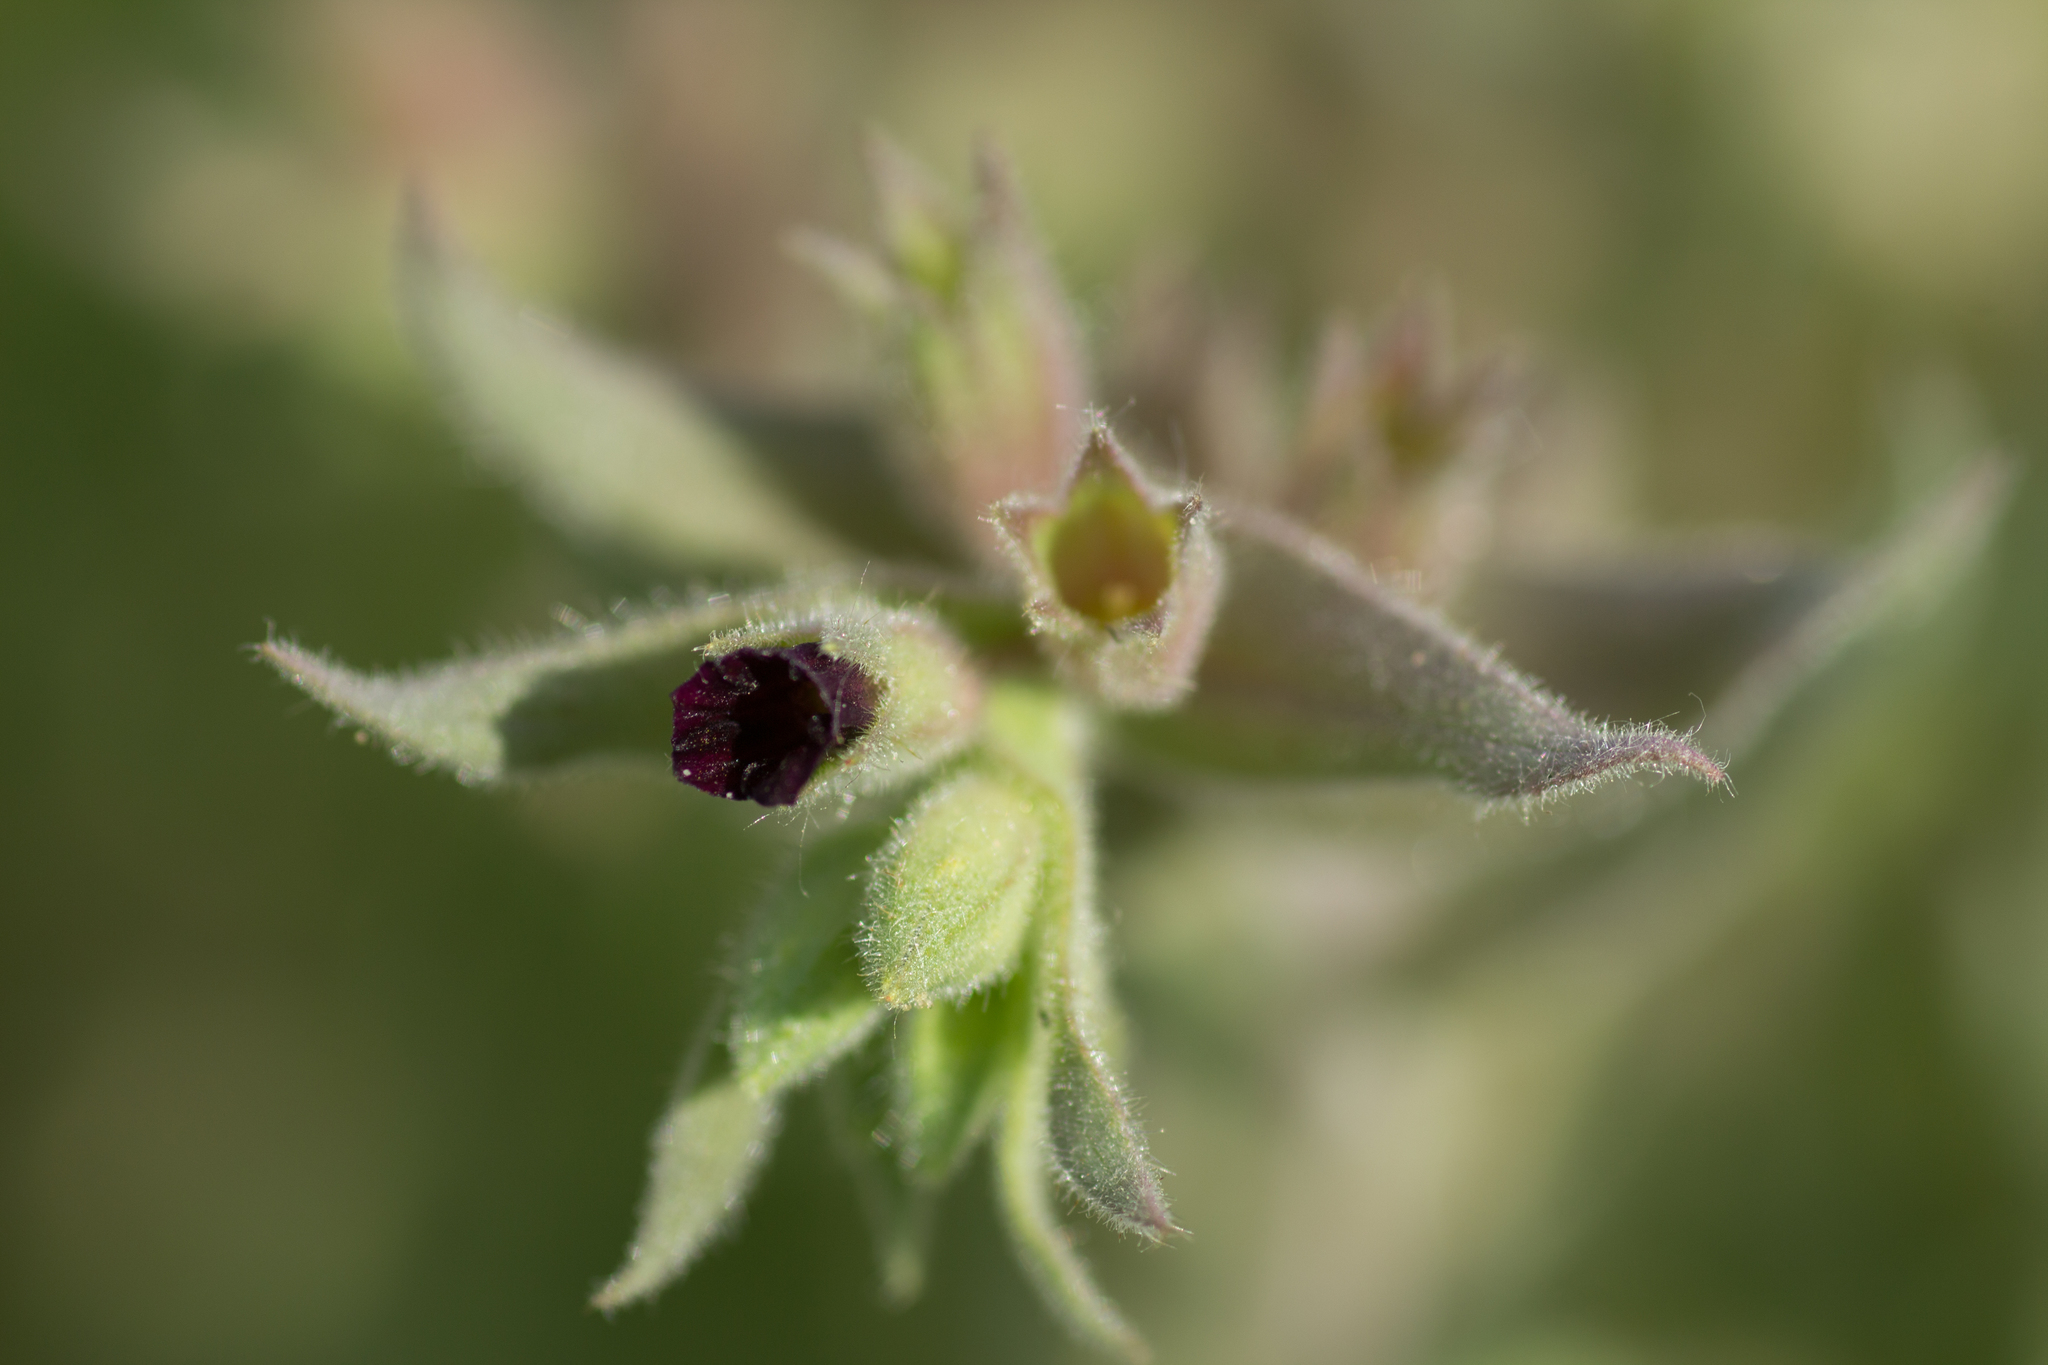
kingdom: Plantae
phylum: Tracheophyta
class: Magnoliopsida
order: Boraginales
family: Boraginaceae
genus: Nonea
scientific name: Nonea pulla
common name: Brown nonea
